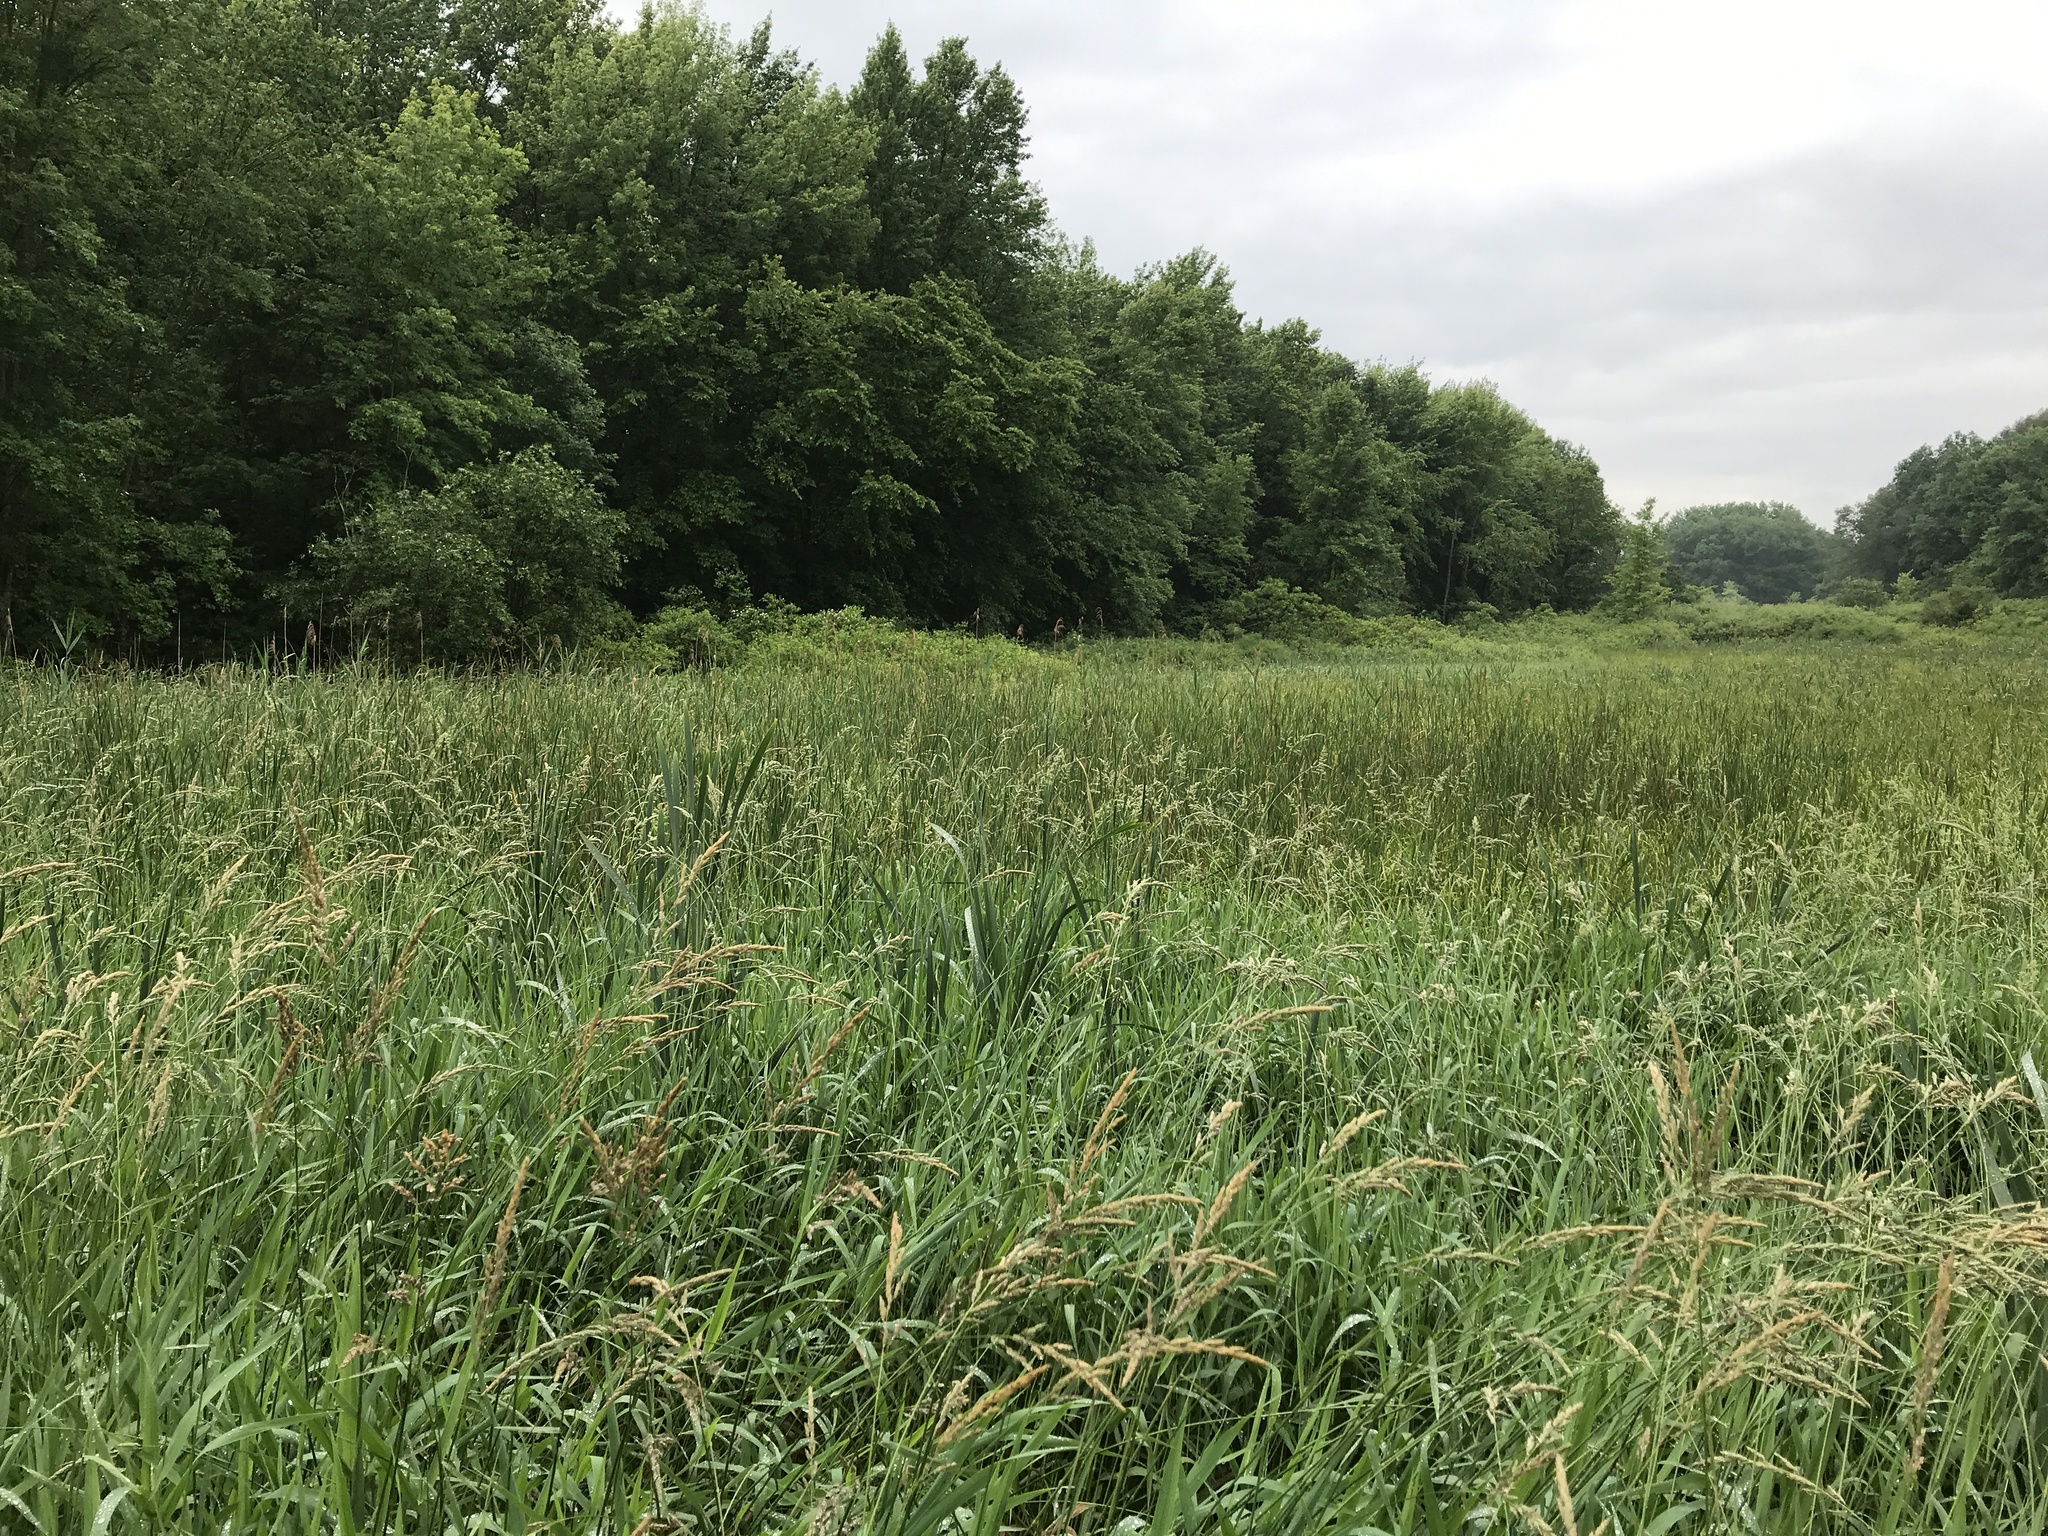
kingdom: Plantae
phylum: Tracheophyta
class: Liliopsida
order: Poales
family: Poaceae
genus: Phragmites
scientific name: Phragmites australis
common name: Common reed
